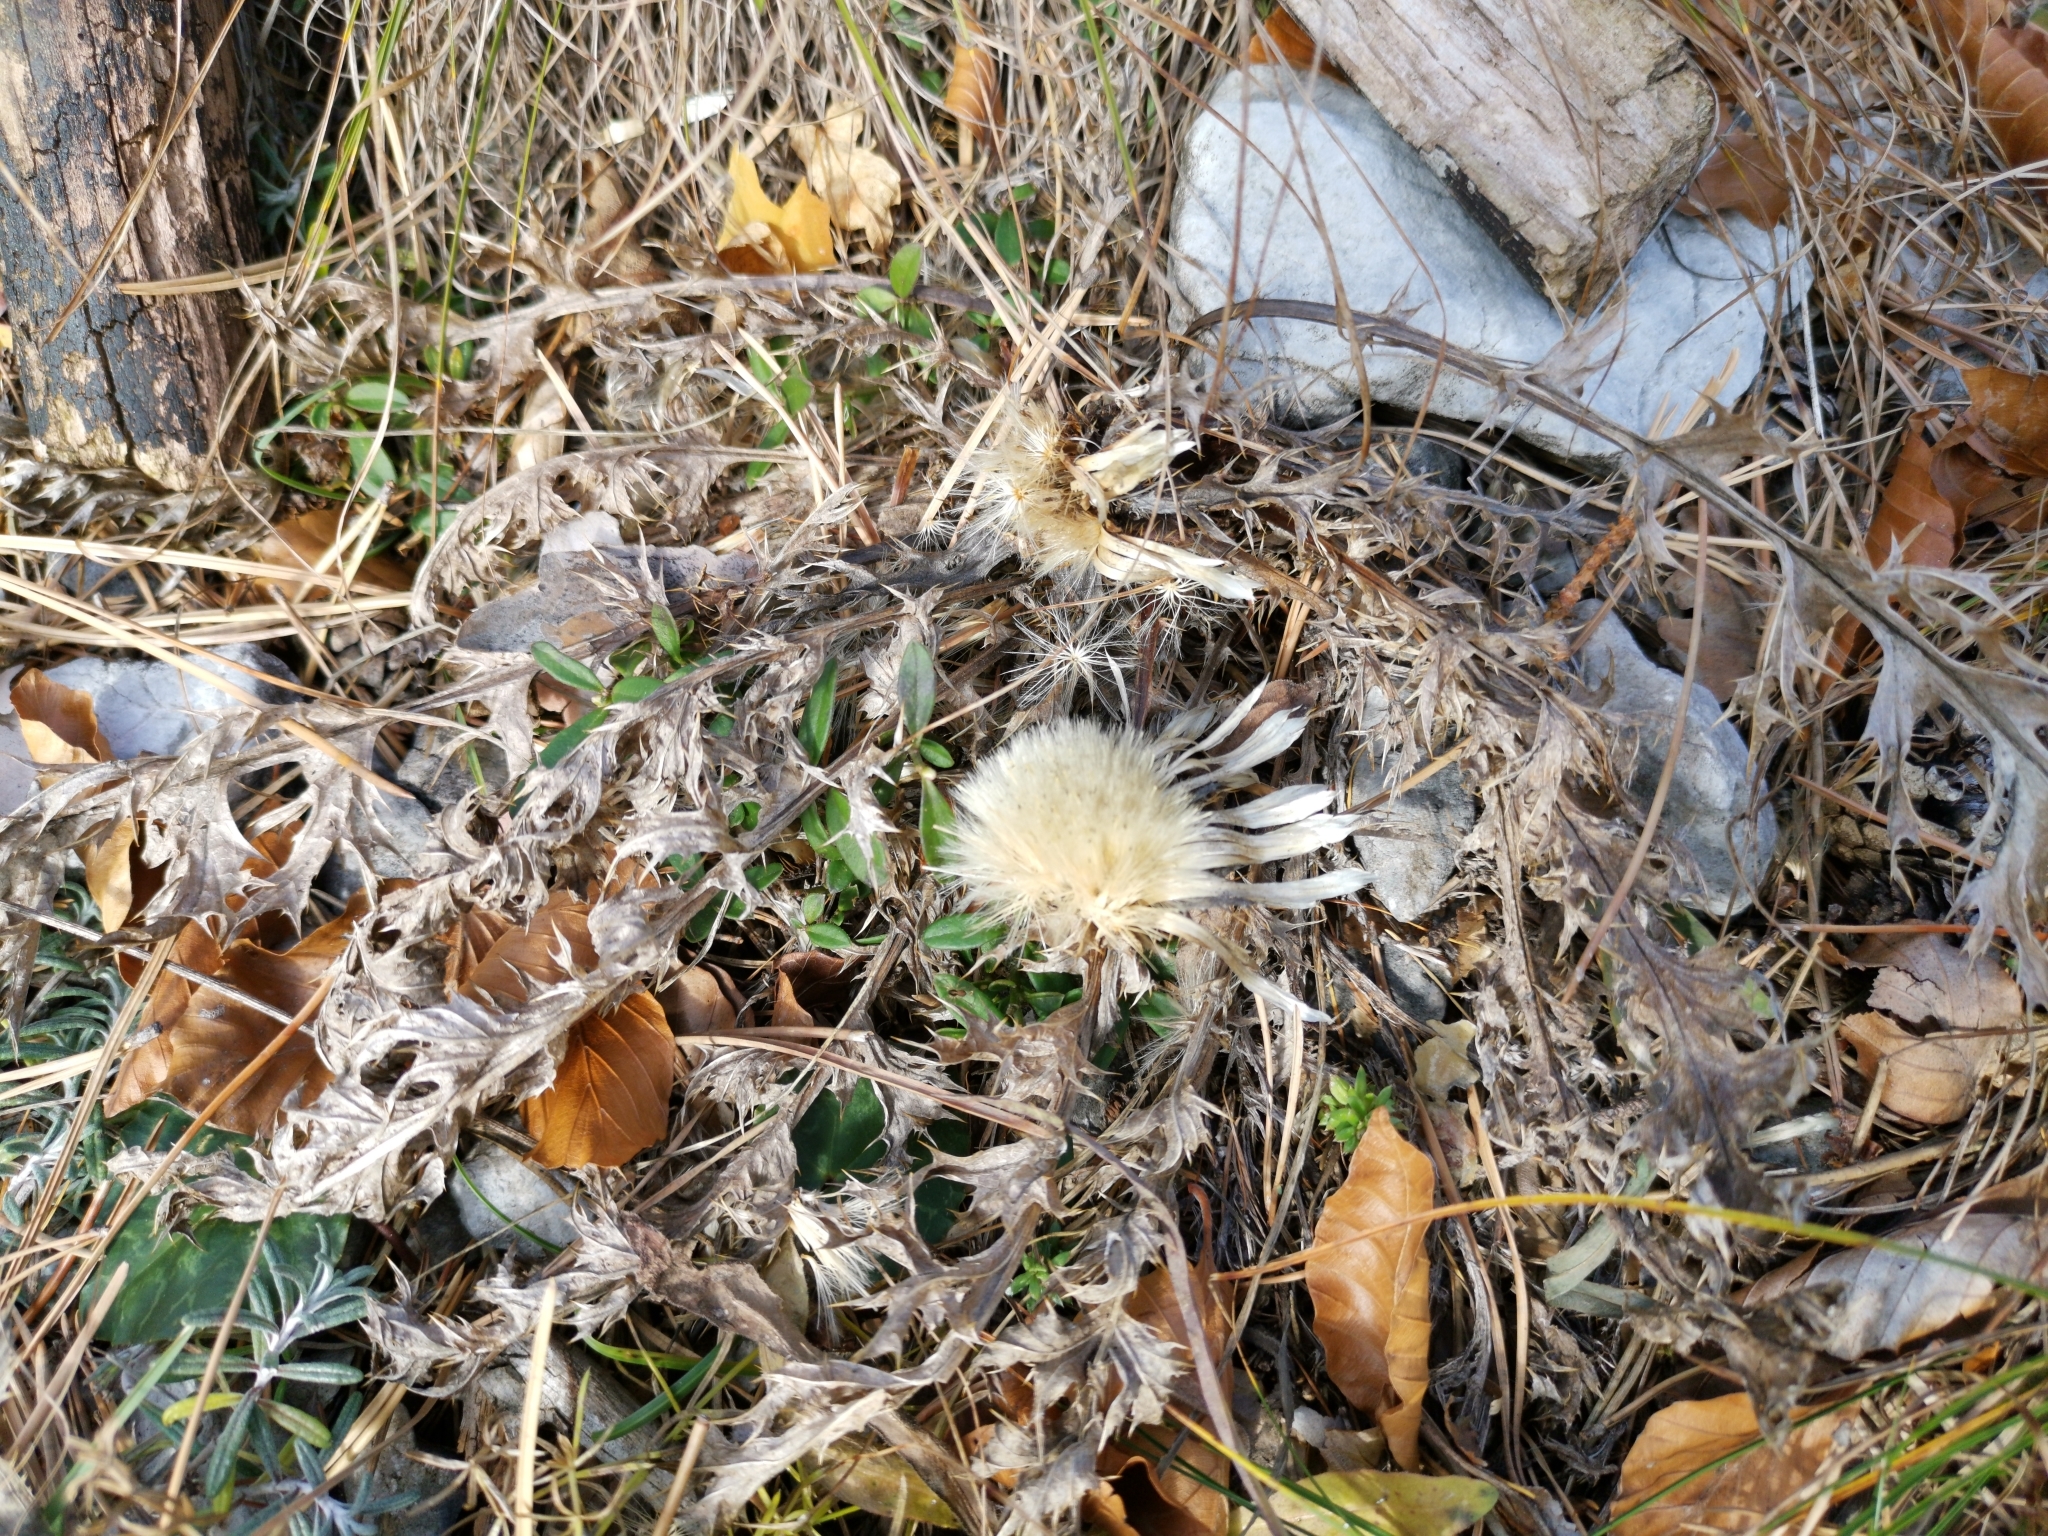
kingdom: Plantae
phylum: Tracheophyta
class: Magnoliopsida
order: Asterales
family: Asteraceae
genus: Carlina
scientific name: Carlina acaulis
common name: Stemless carline thistle
